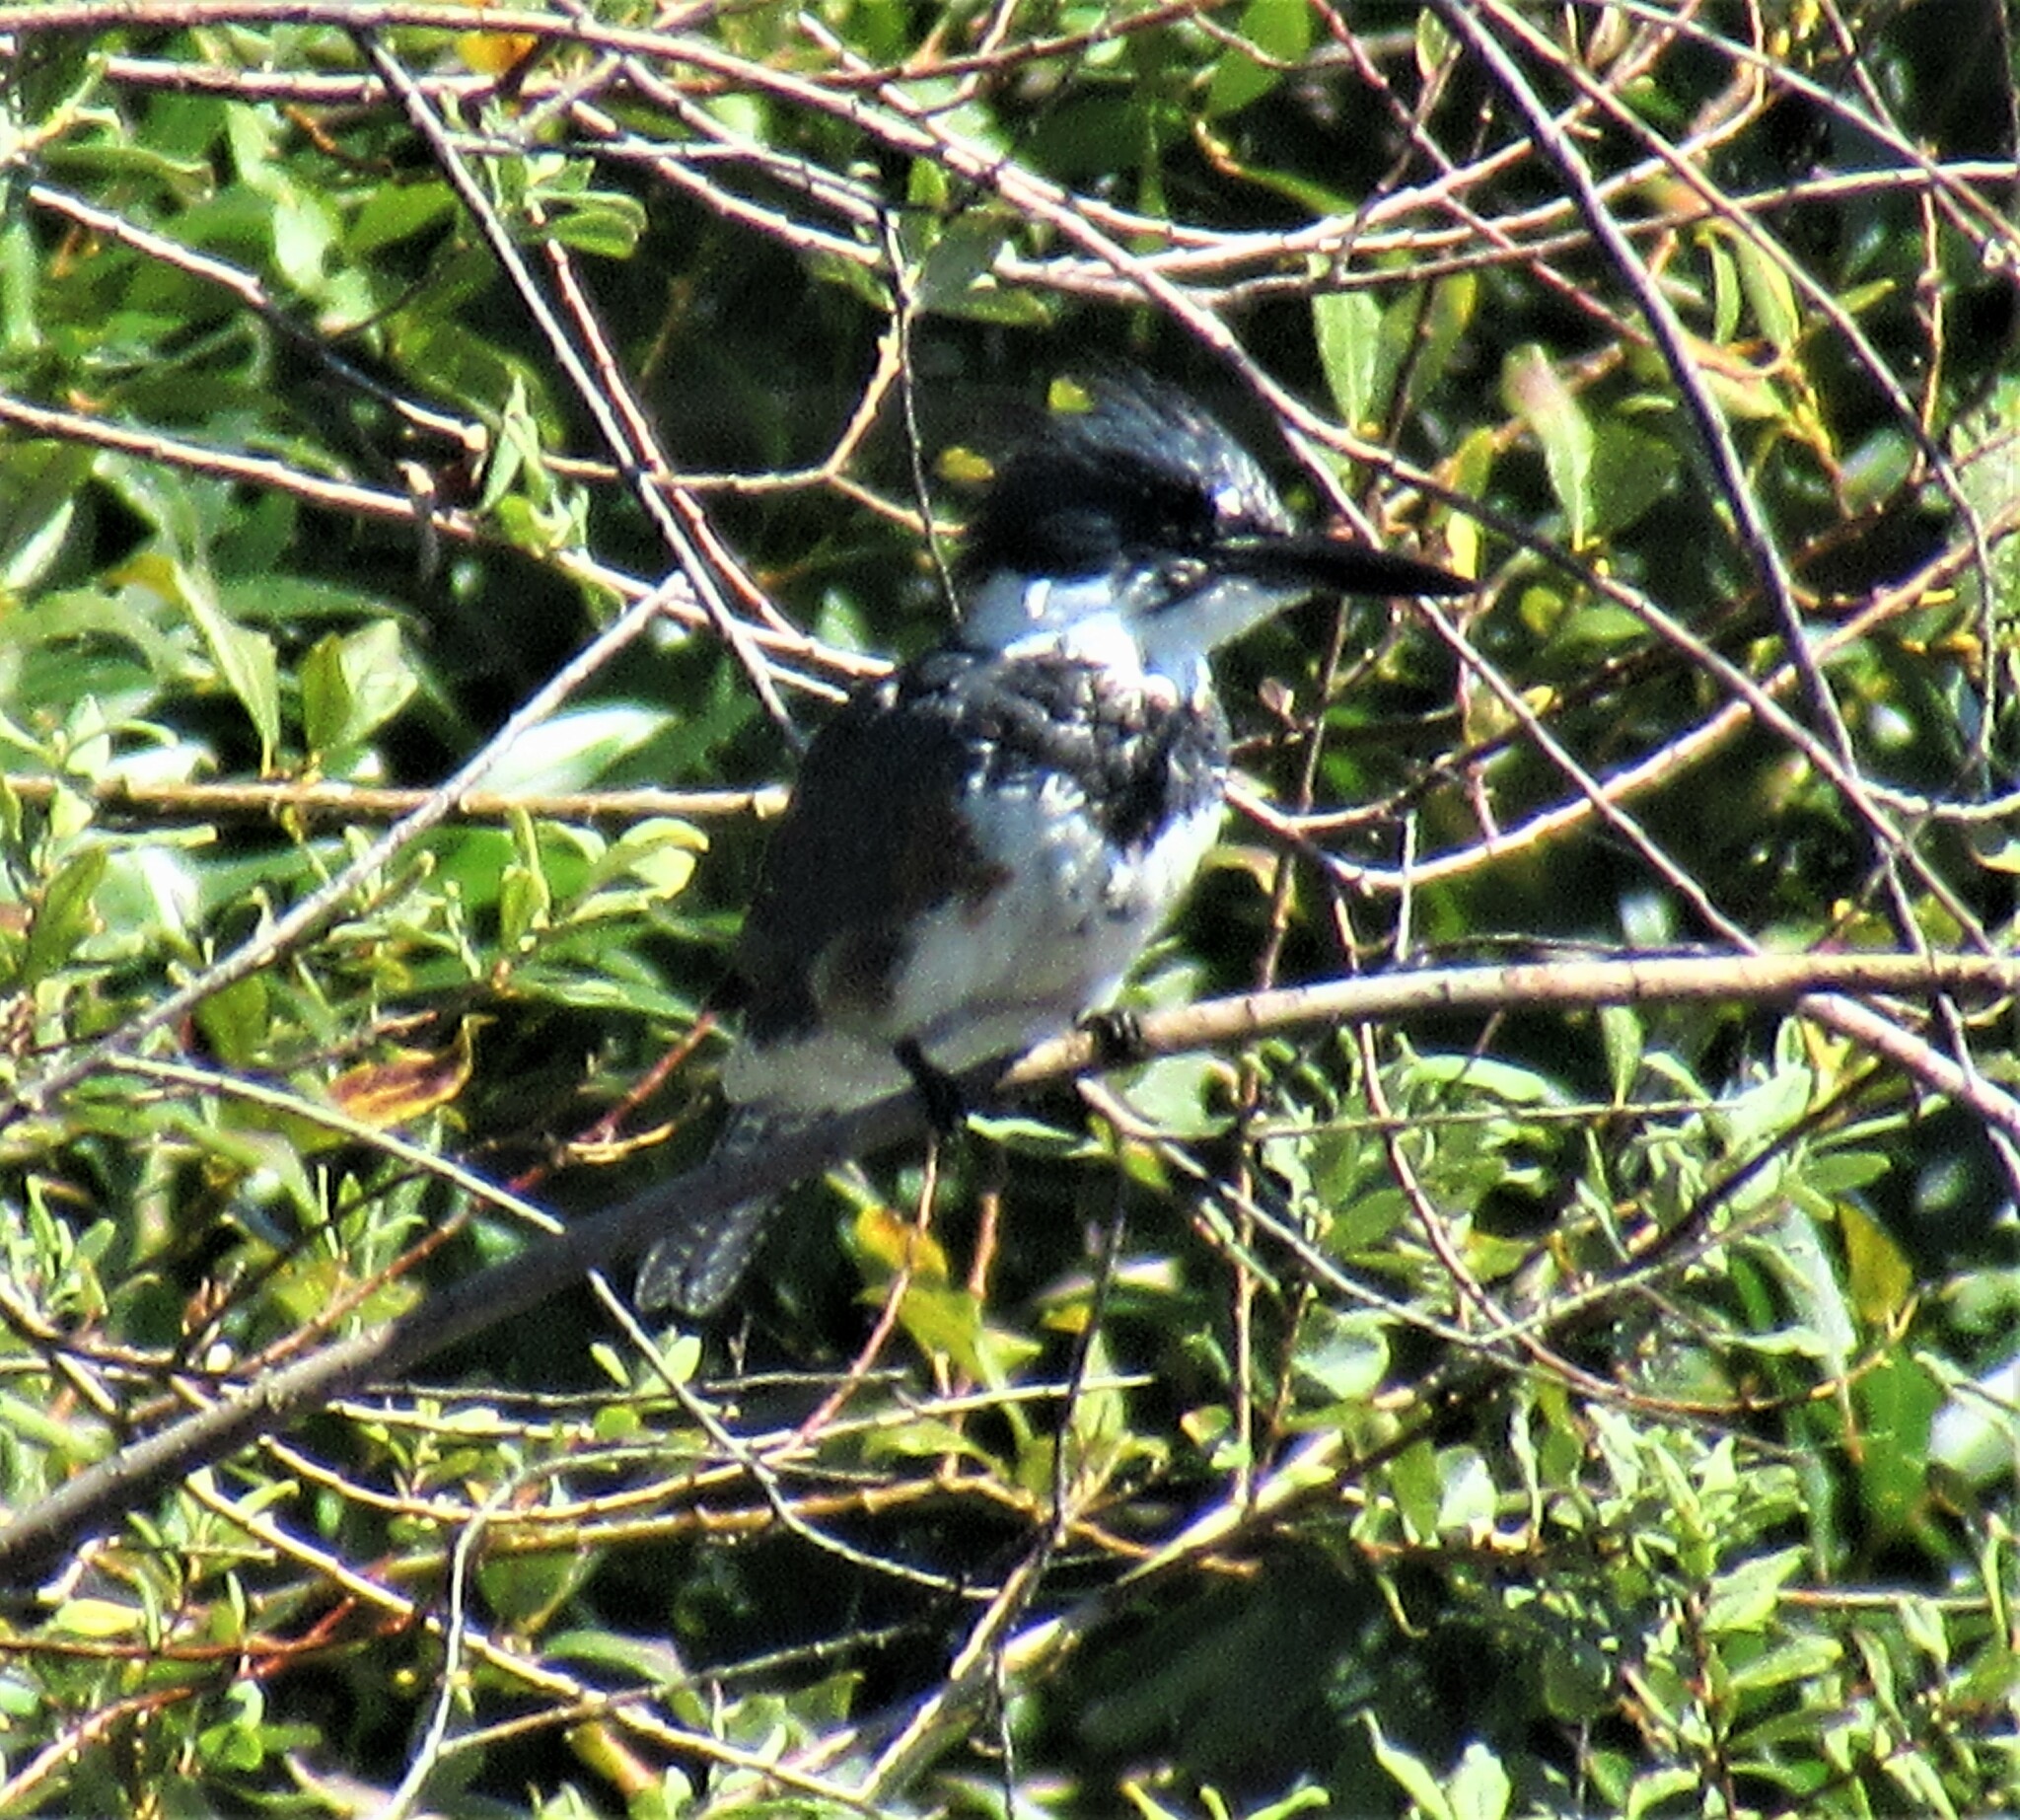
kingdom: Animalia
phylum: Chordata
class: Aves
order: Coraciiformes
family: Alcedinidae
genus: Megaceryle
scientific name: Megaceryle alcyon
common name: Belted kingfisher
